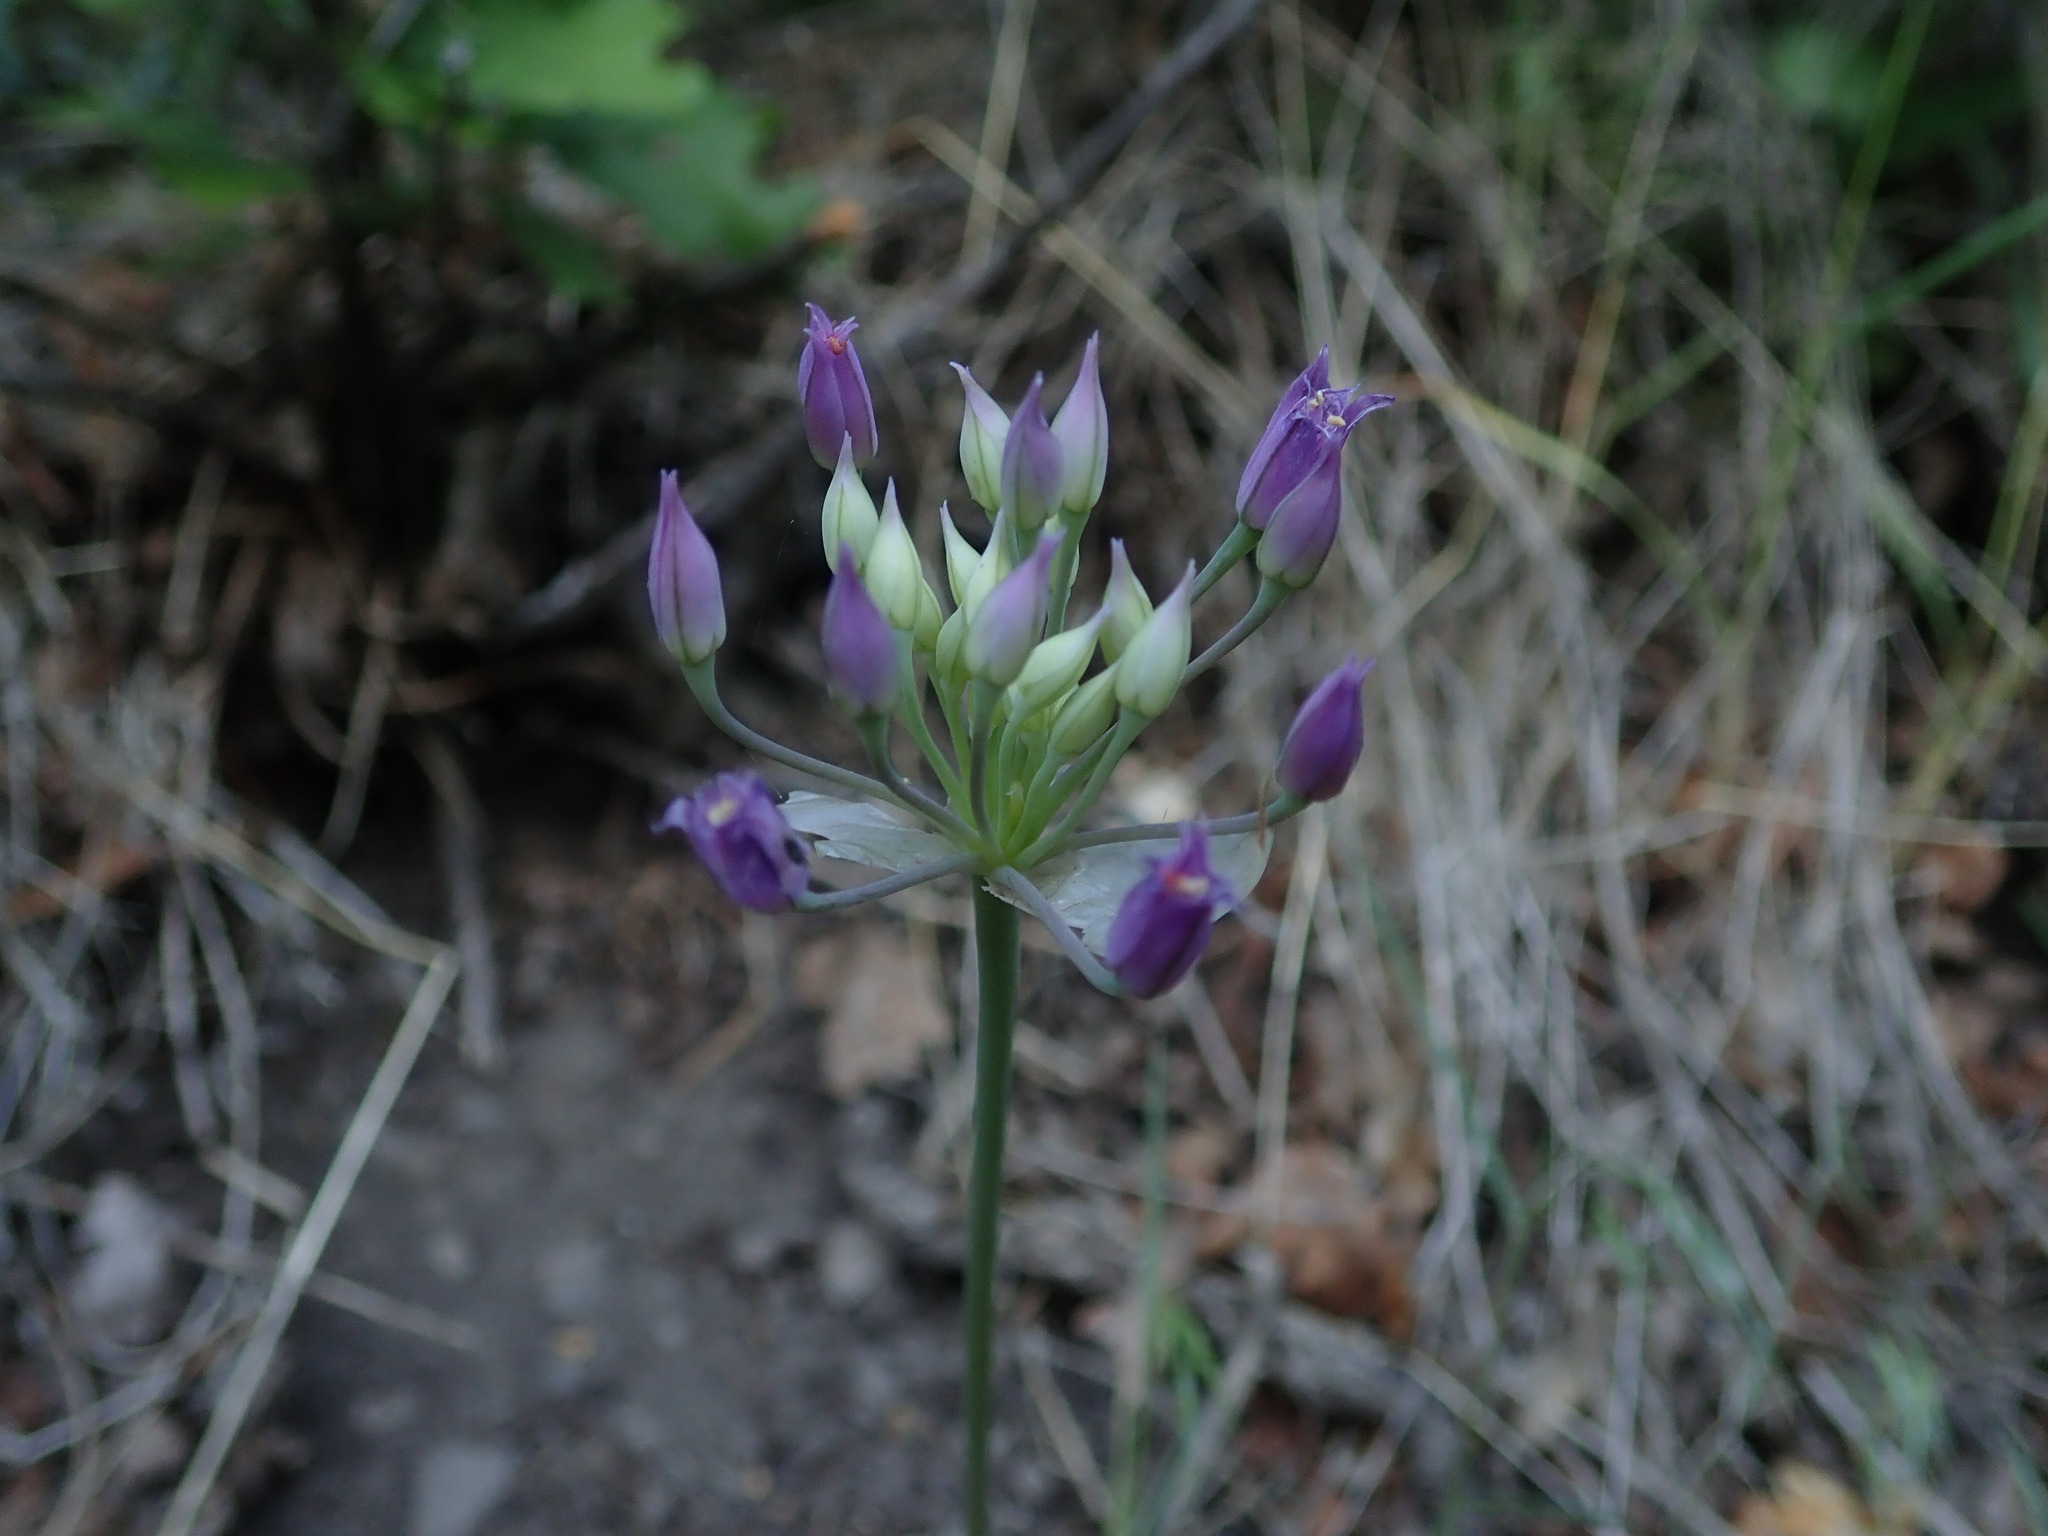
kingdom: Plantae
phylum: Tracheophyta
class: Liliopsida
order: Asparagales
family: Amaryllidaceae
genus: Allium
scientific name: Allium acuminatum
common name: Hooker's onion
